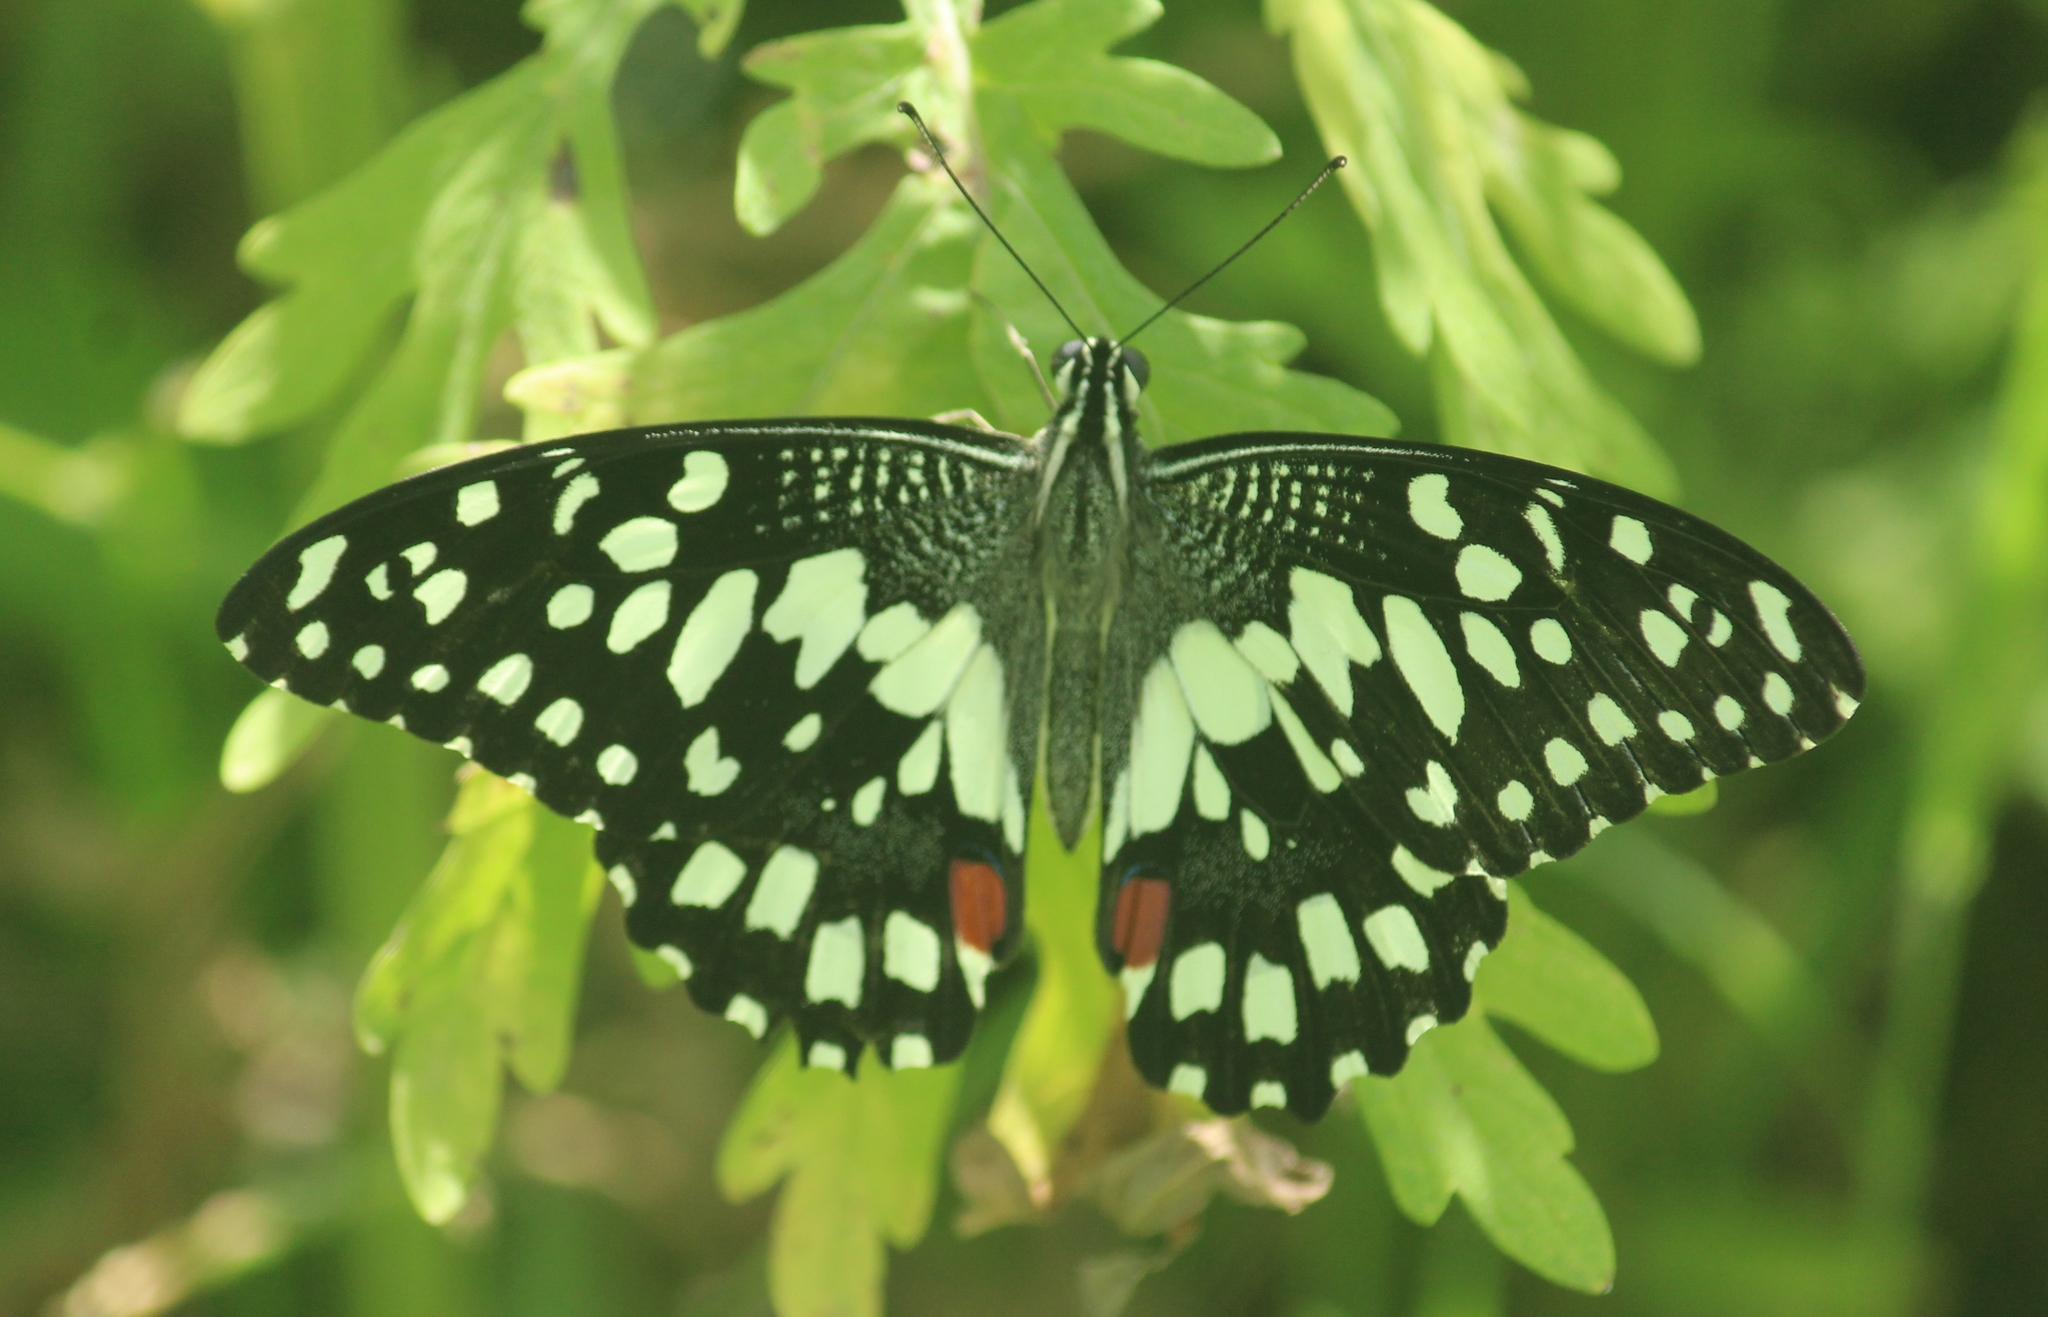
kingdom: Animalia
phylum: Arthropoda
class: Insecta
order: Lepidoptera
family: Papilionidae
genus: Papilio
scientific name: Papilio demoleus
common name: Lime butterfly
